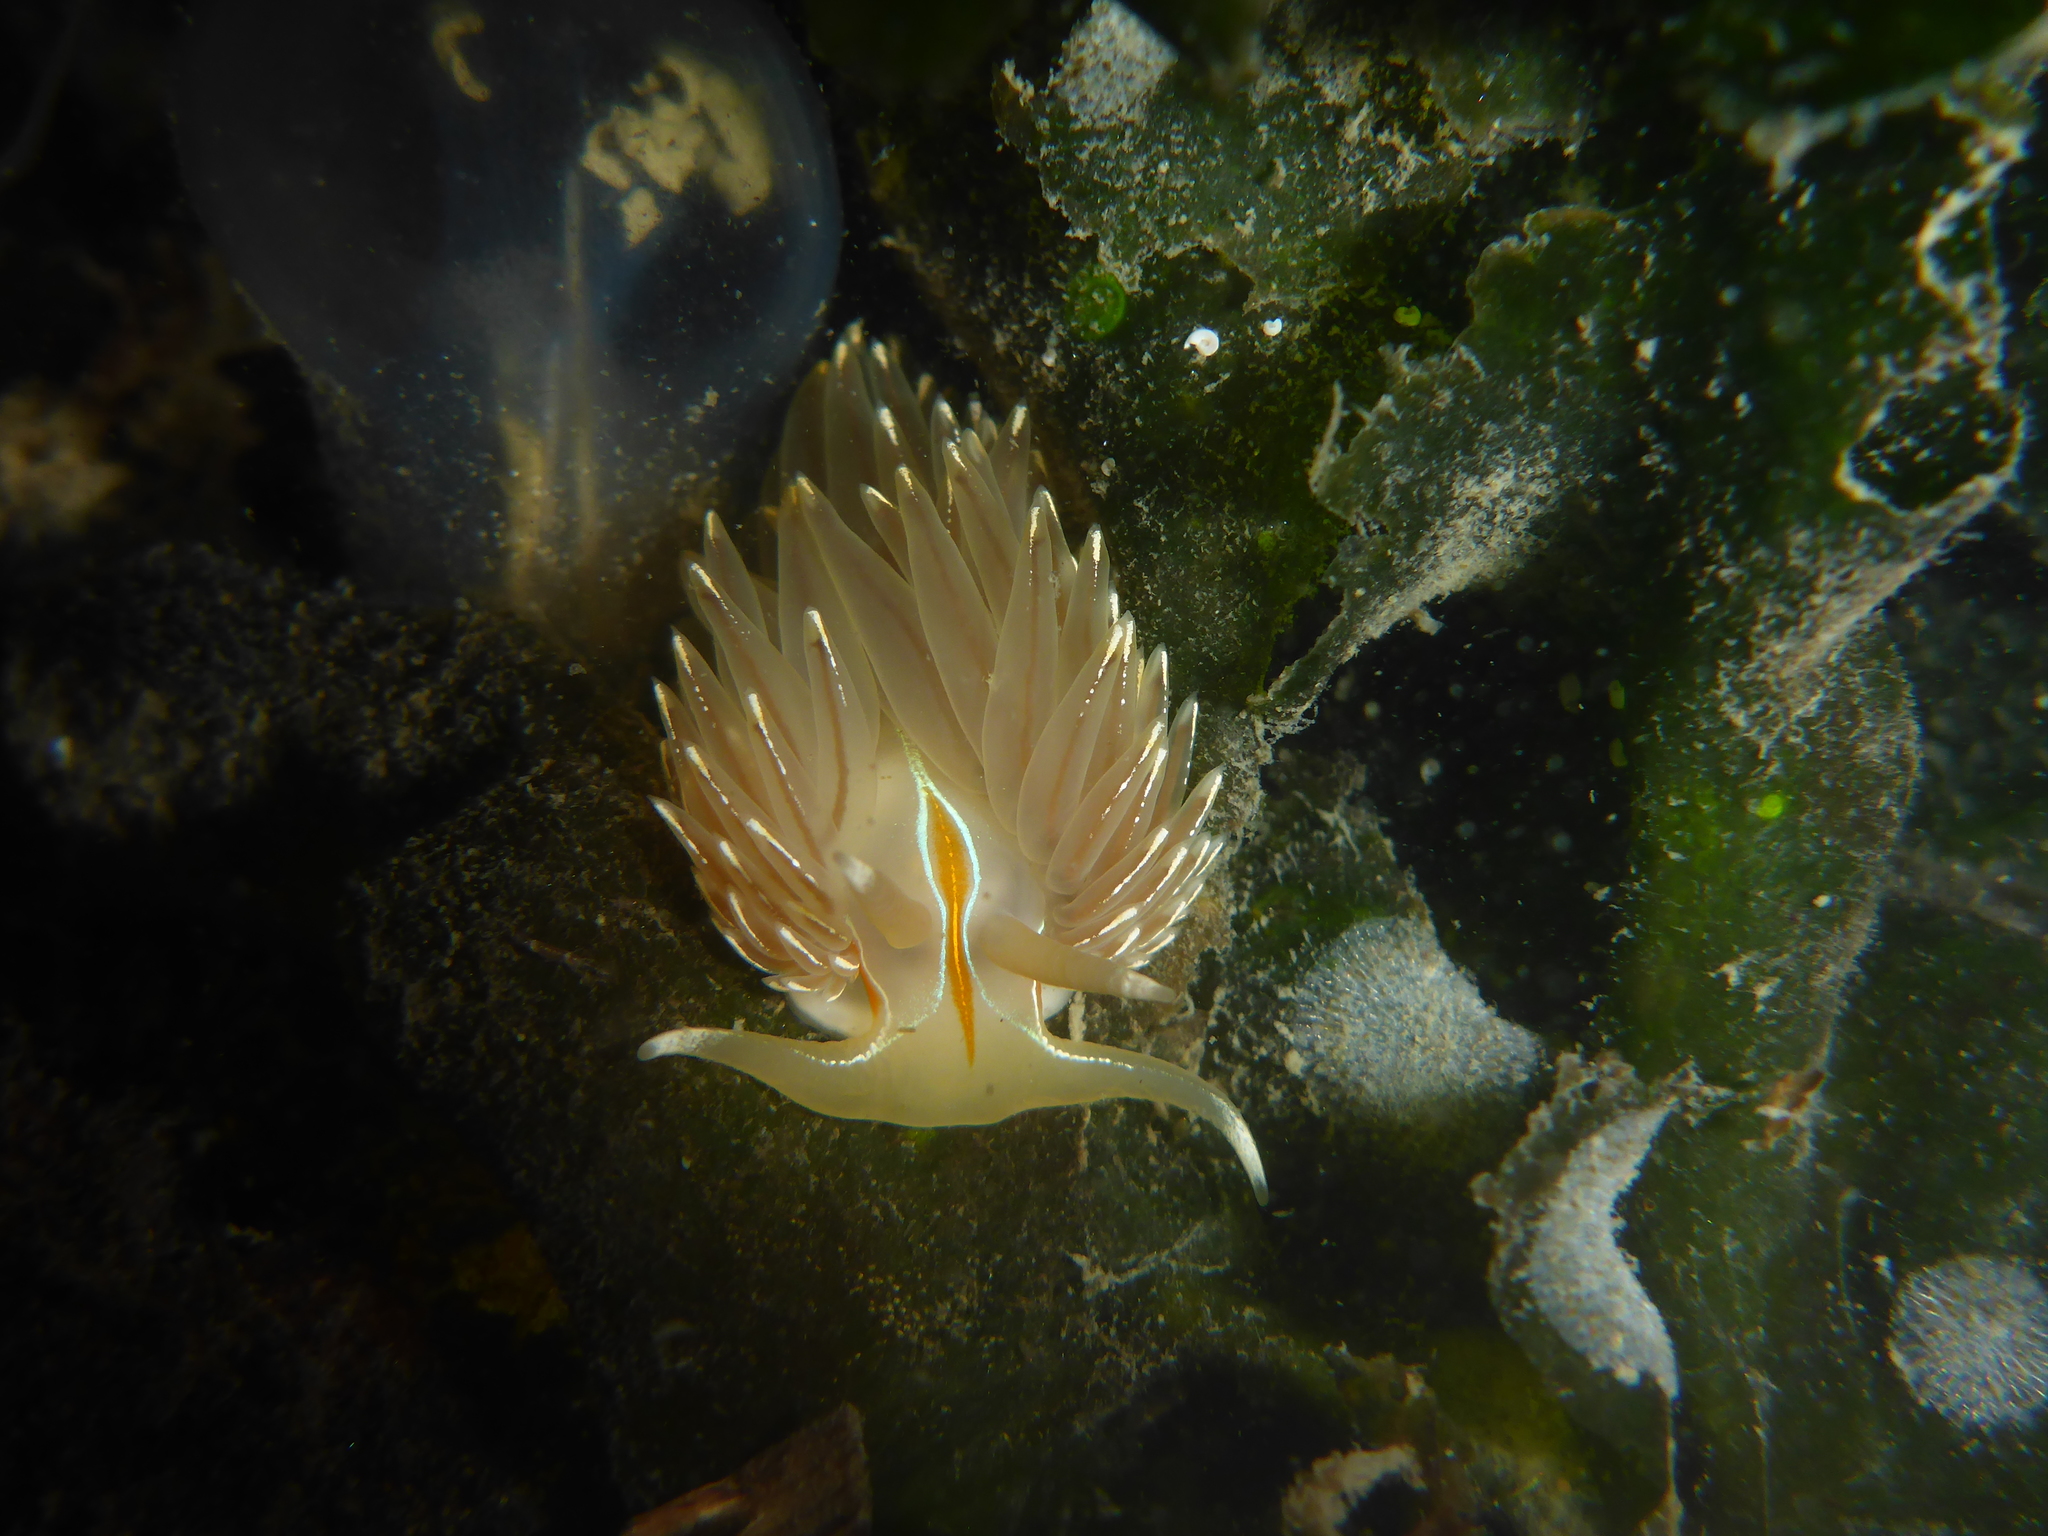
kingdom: Animalia
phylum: Mollusca
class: Gastropoda
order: Nudibranchia
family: Myrrhinidae
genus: Hermissenda
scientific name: Hermissenda crassicornis
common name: Hermissenda
